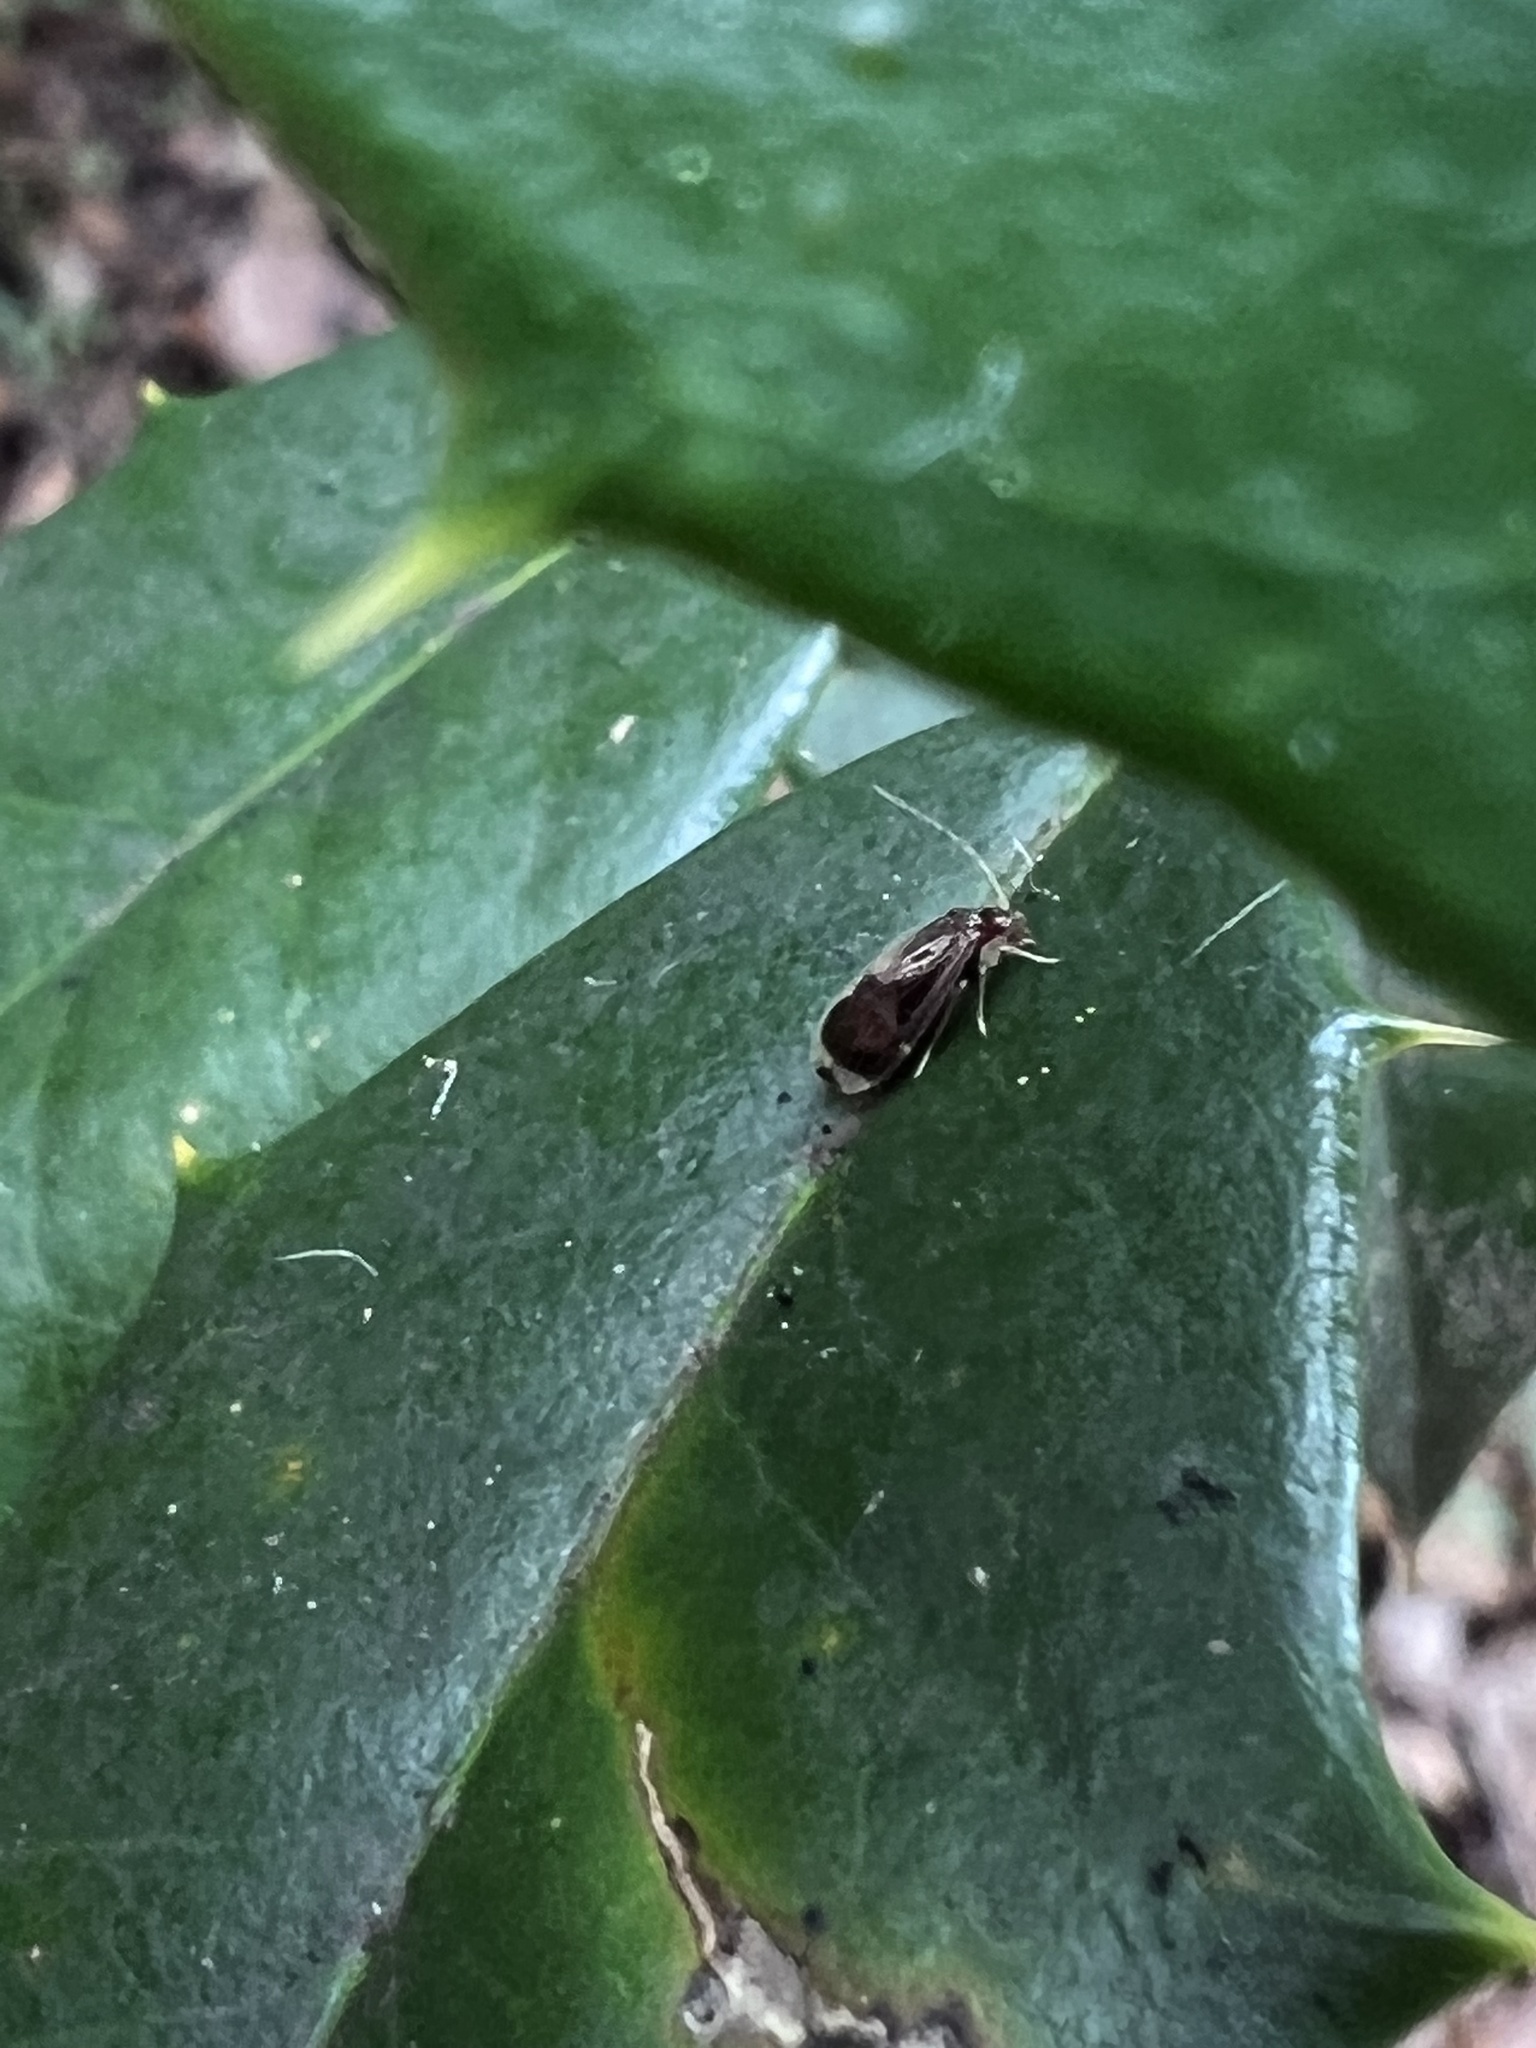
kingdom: Animalia
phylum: Arthropoda
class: Insecta
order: Psocodea
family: Amphipsocidae
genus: Polypsocus
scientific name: Polypsocus corruptus
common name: Corrupt barklouse
